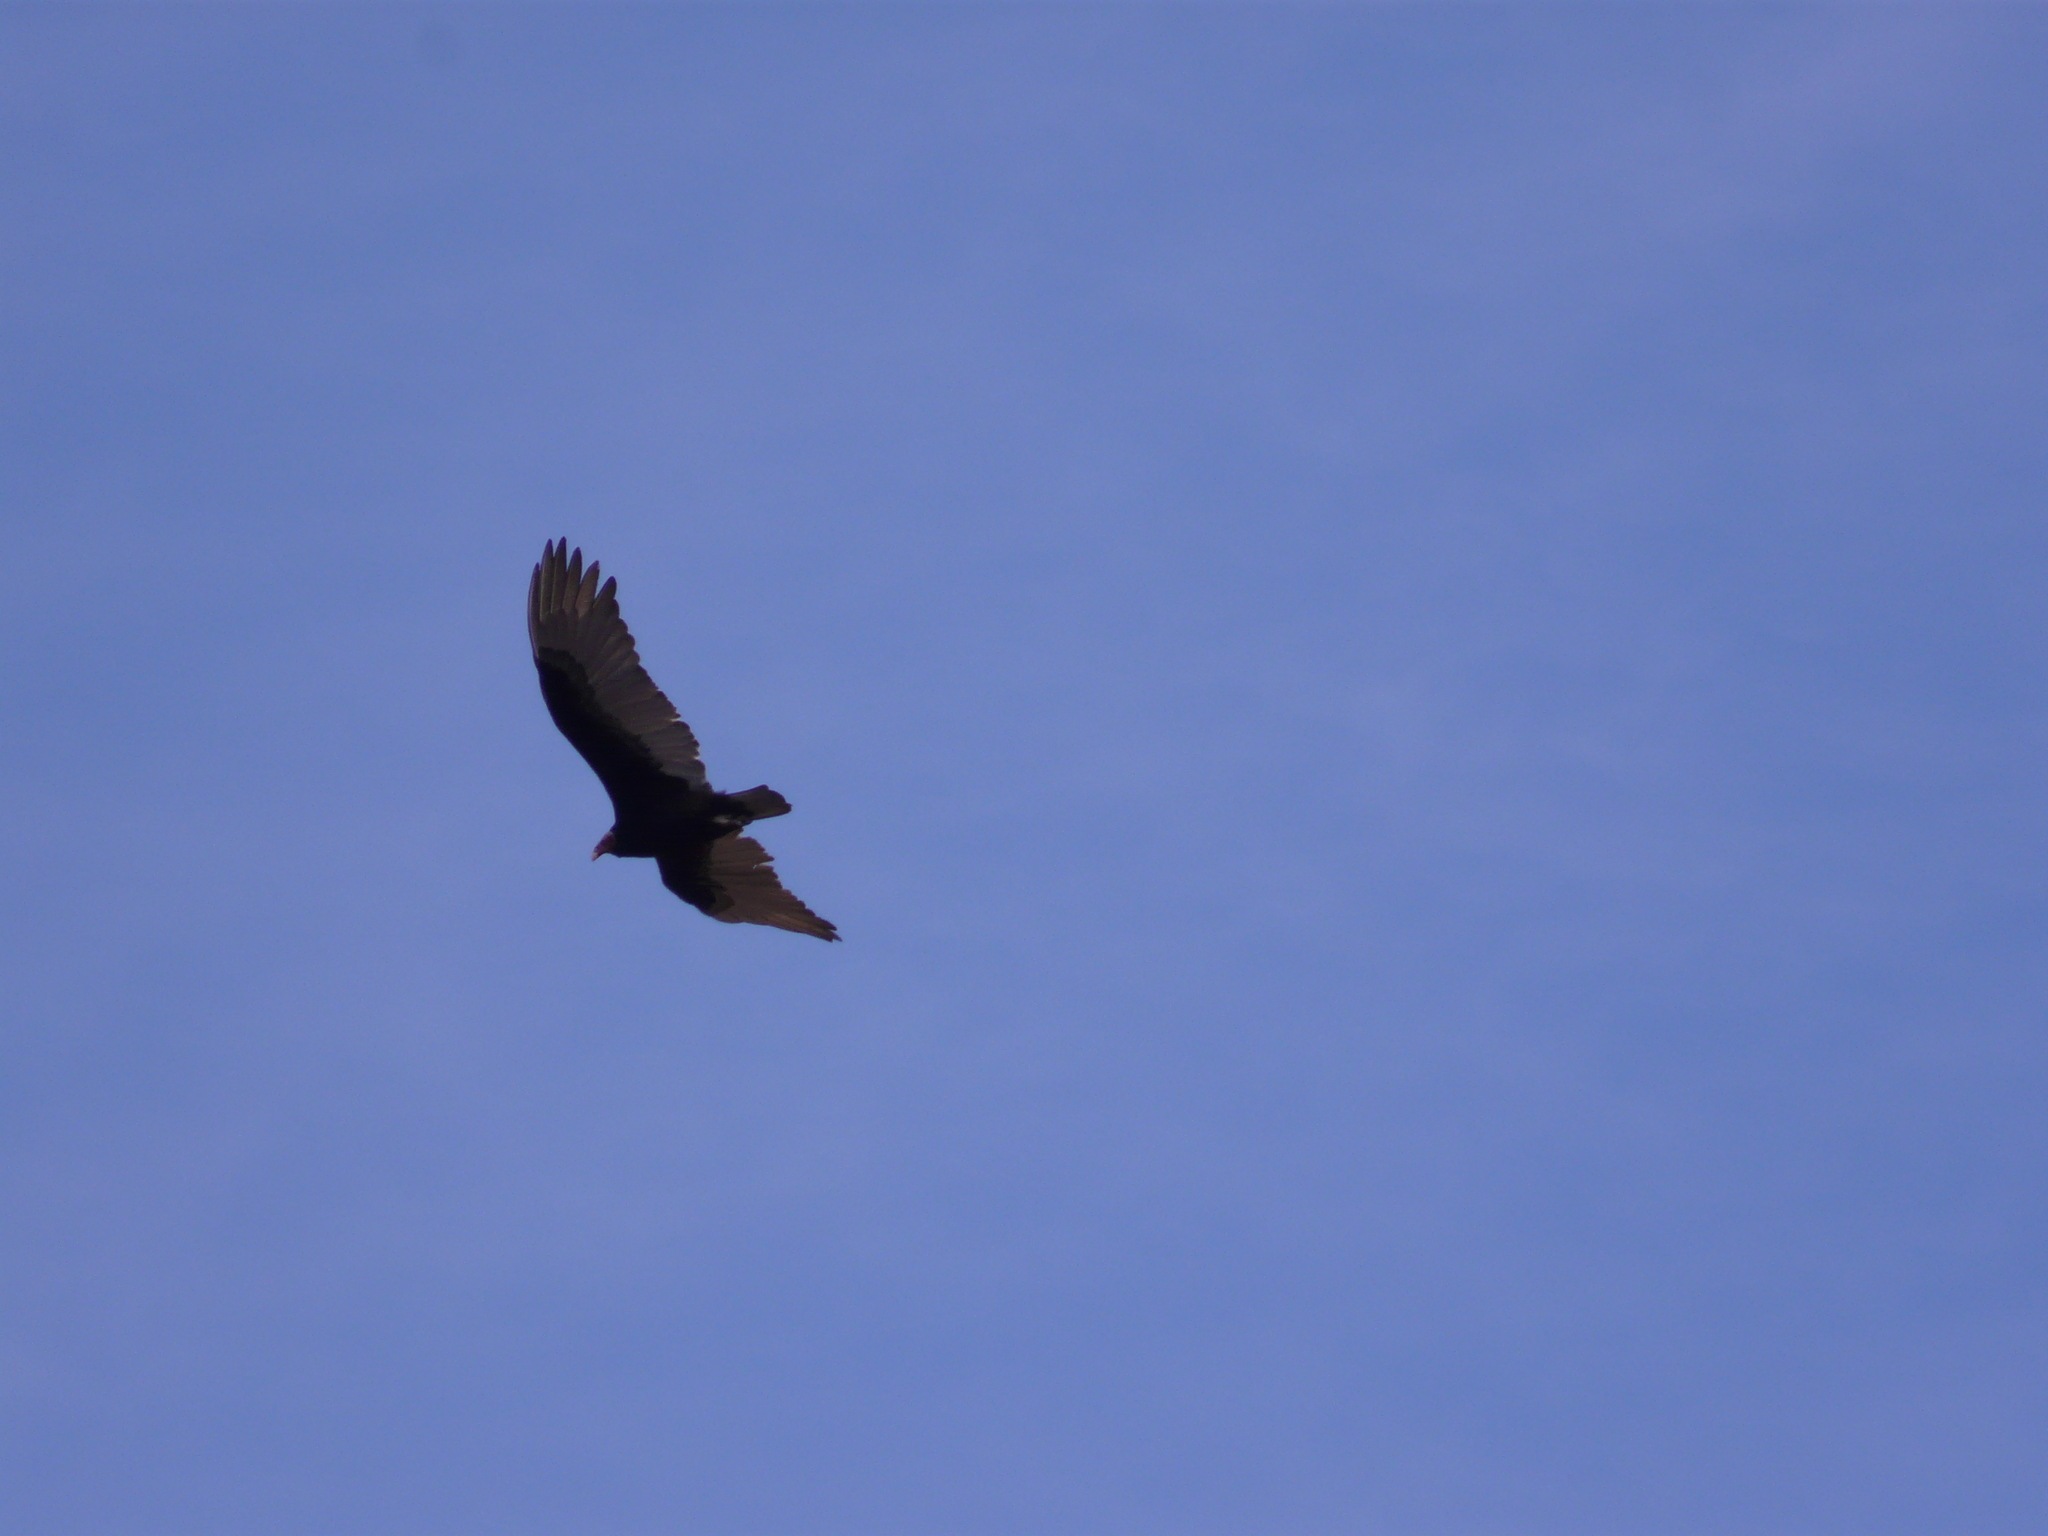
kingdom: Animalia
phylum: Chordata
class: Aves
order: Accipitriformes
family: Cathartidae
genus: Cathartes
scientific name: Cathartes aura
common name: Turkey vulture
